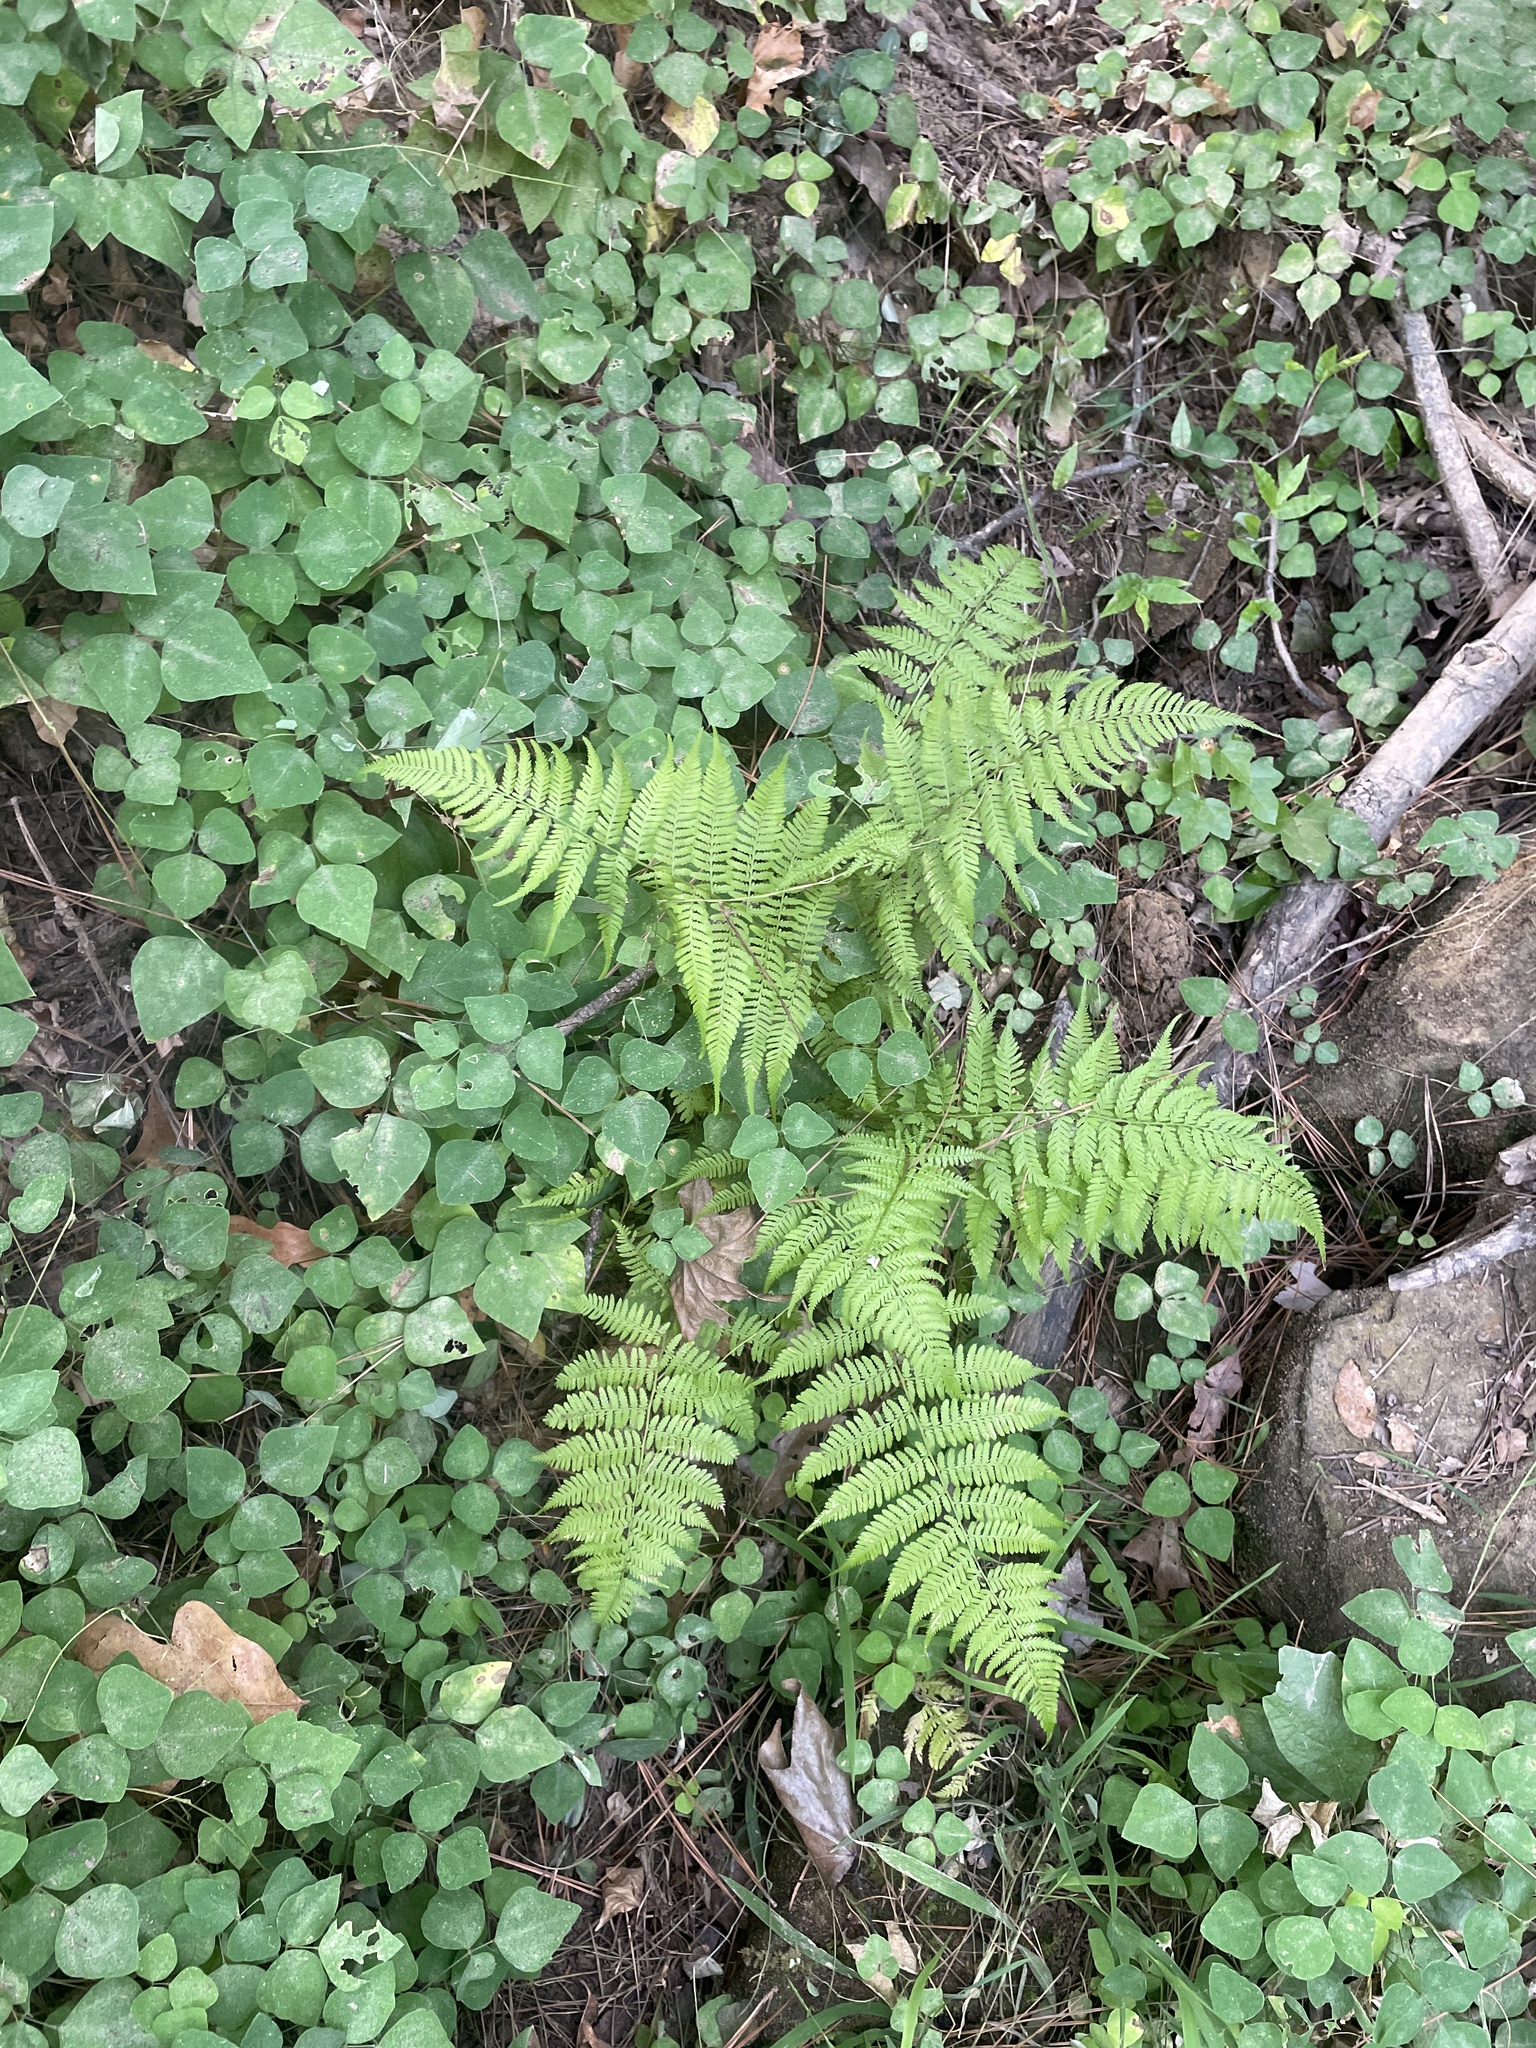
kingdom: Plantae
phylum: Tracheophyta
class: Polypodiopsida
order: Polypodiales
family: Athyriaceae
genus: Athyrium
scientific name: Athyrium asplenioides
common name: Southern lady fern
